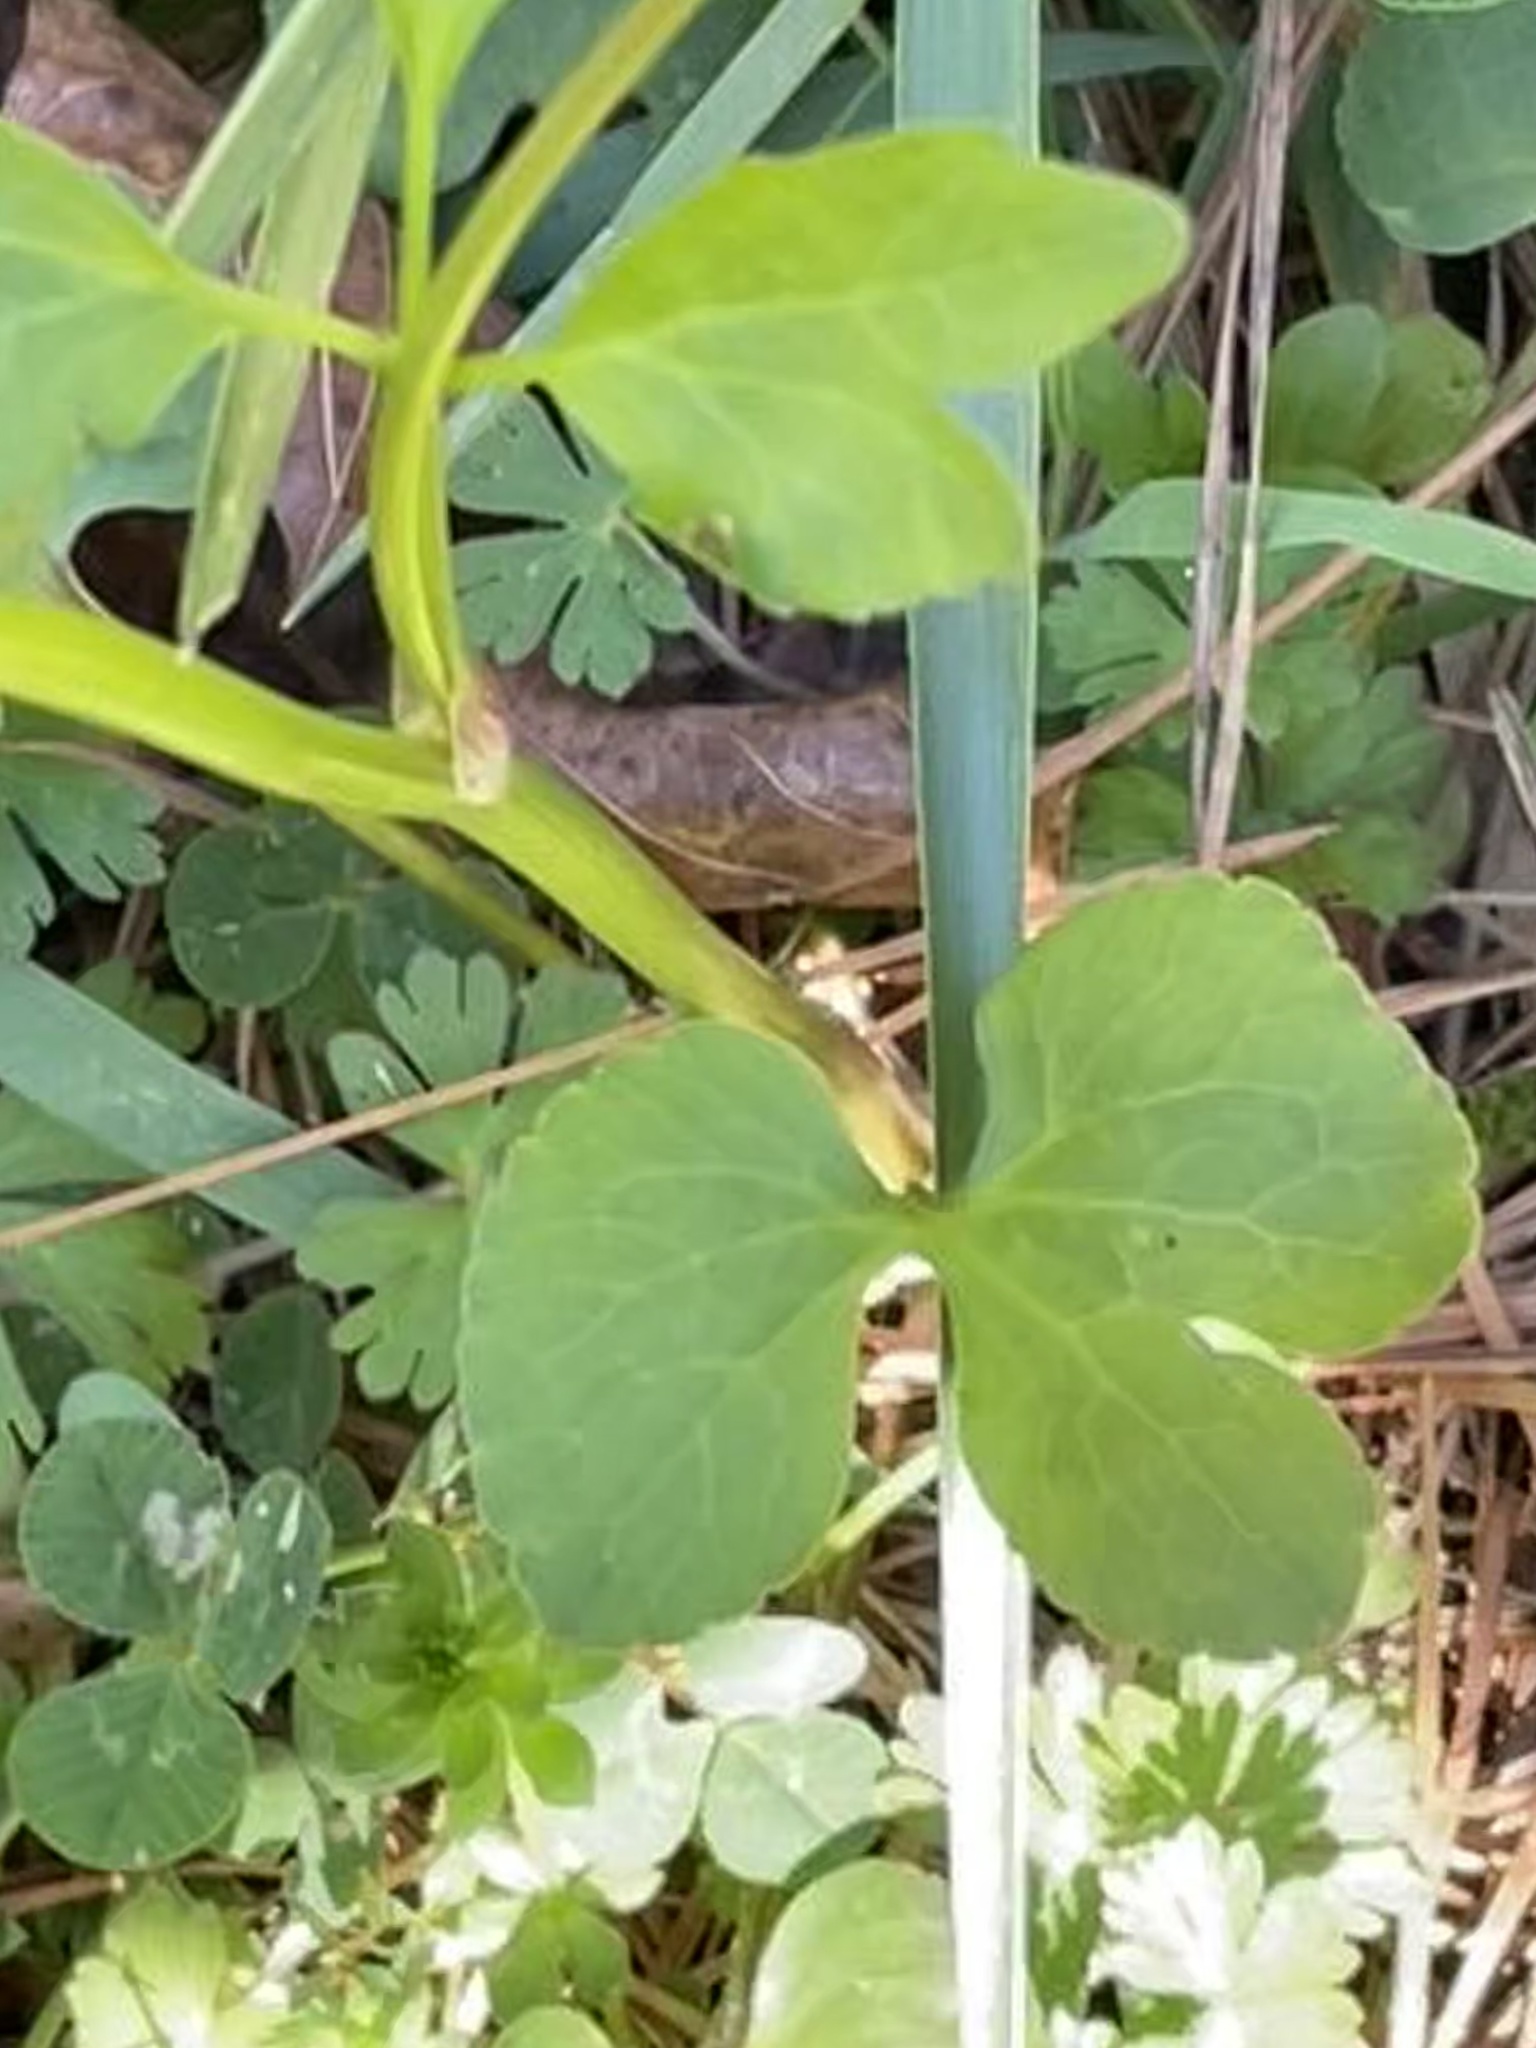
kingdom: Plantae
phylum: Tracheophyta
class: Magnoliopsida
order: Ranunculales
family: Ranunculaceae
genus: Ranunculus
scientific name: Ranunculus abortivus
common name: Early wood buttercup
